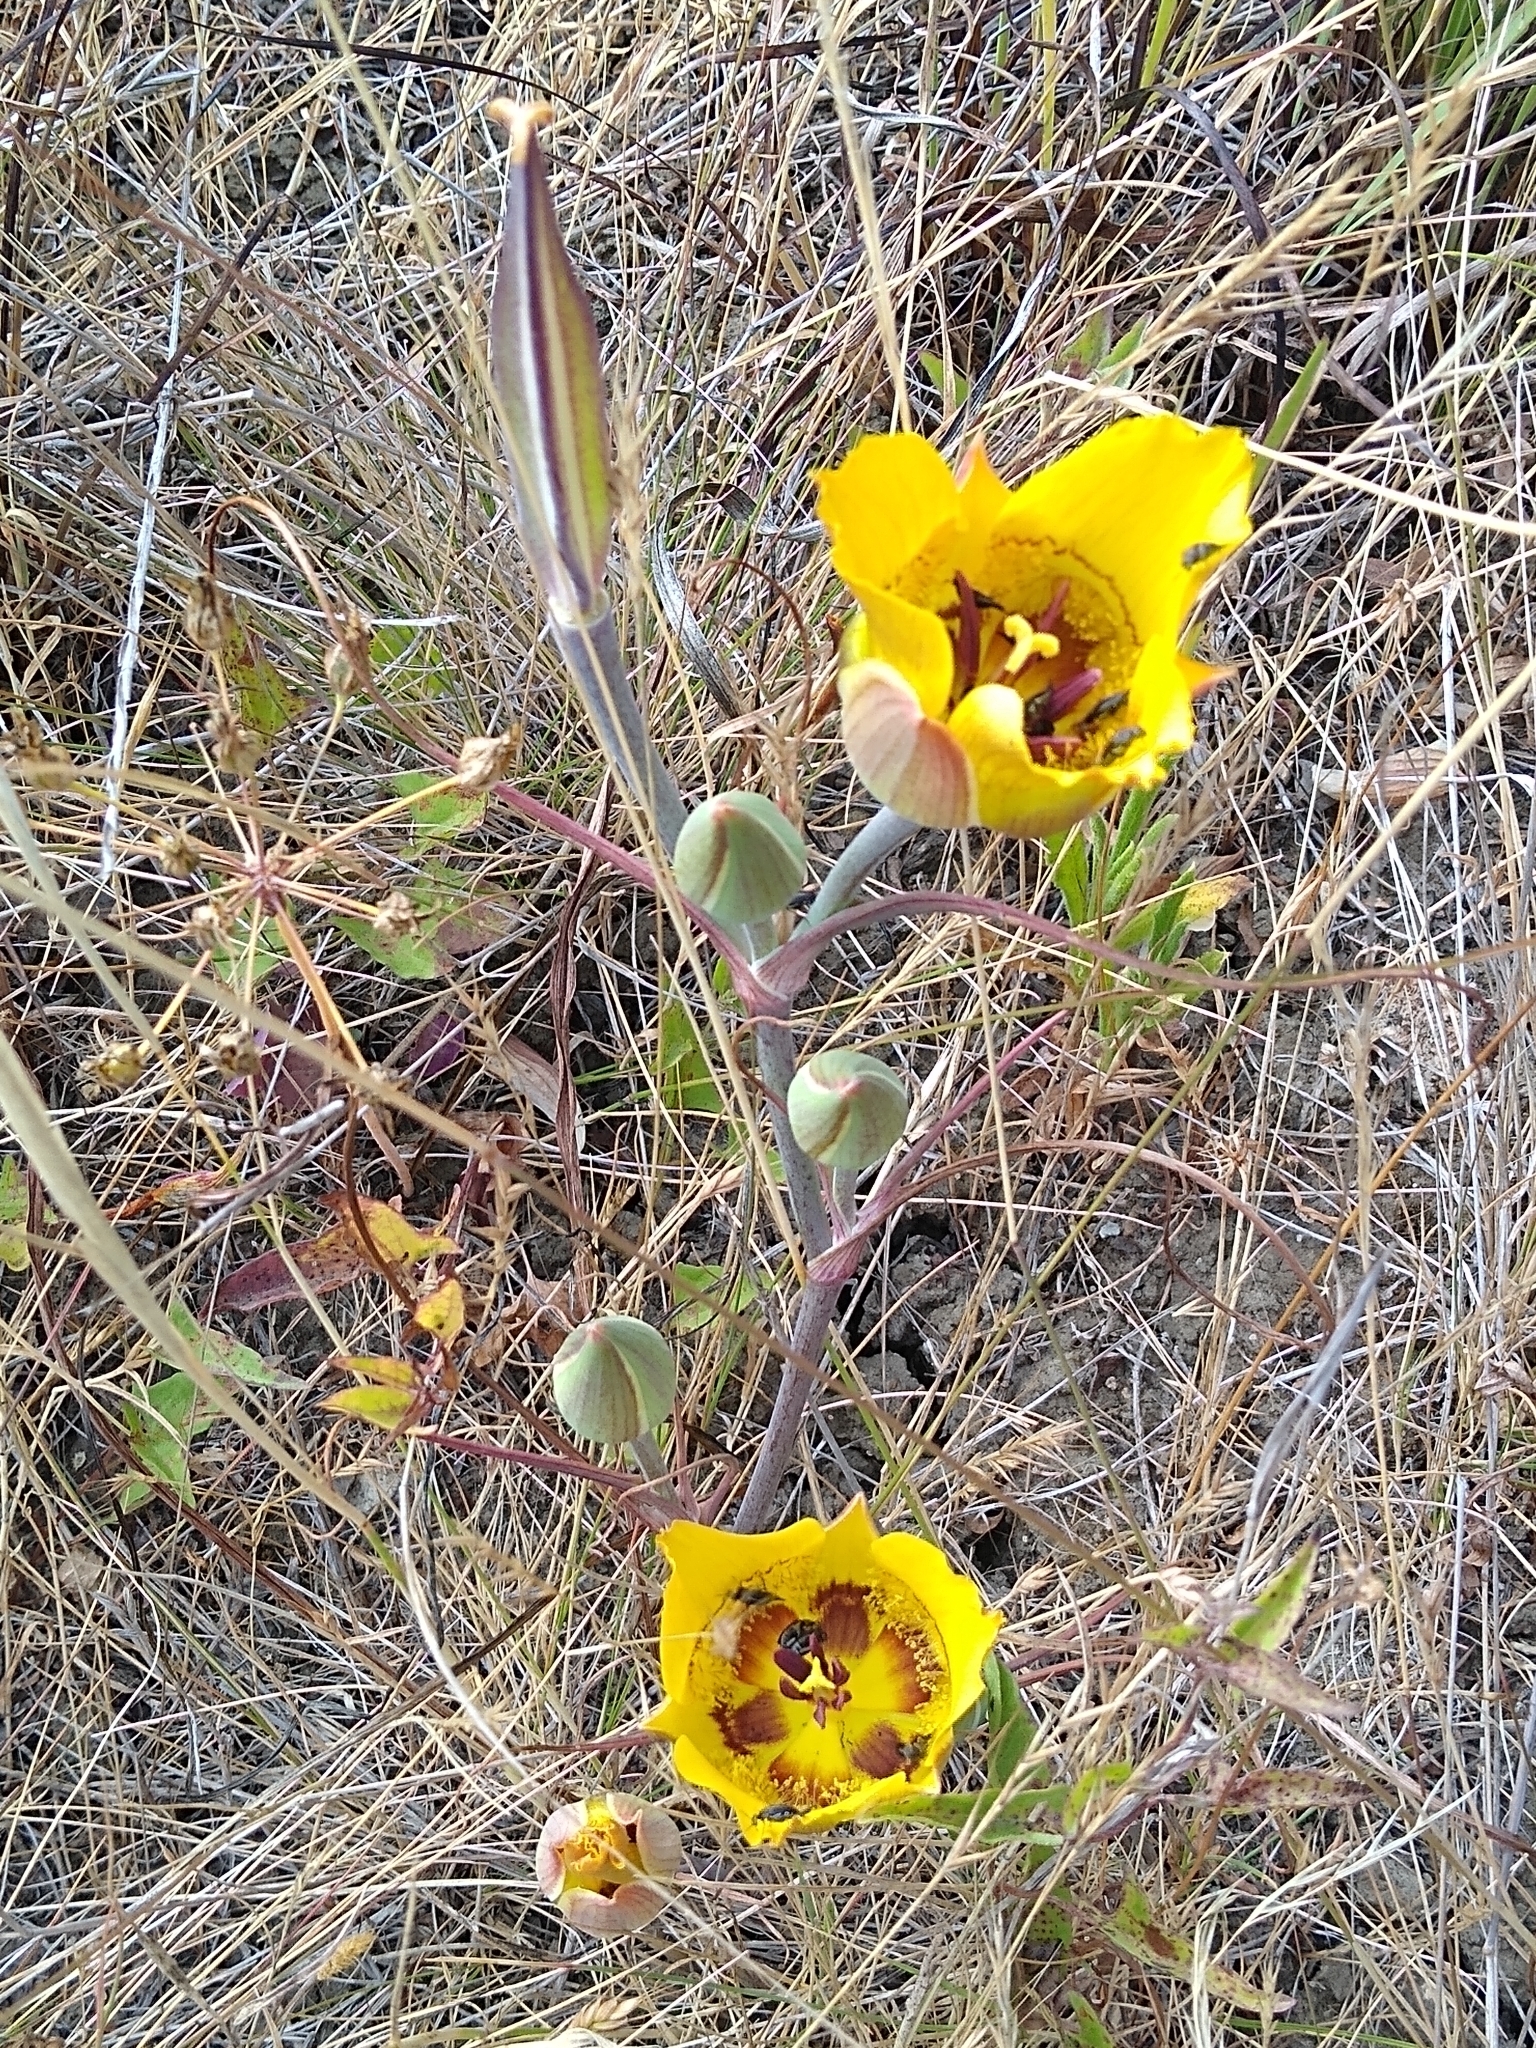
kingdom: Plantae
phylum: Tracheophyta
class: Liliopsida
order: Liliales
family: Liliaceae
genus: Calochortus
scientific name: Calochortus clavatus
